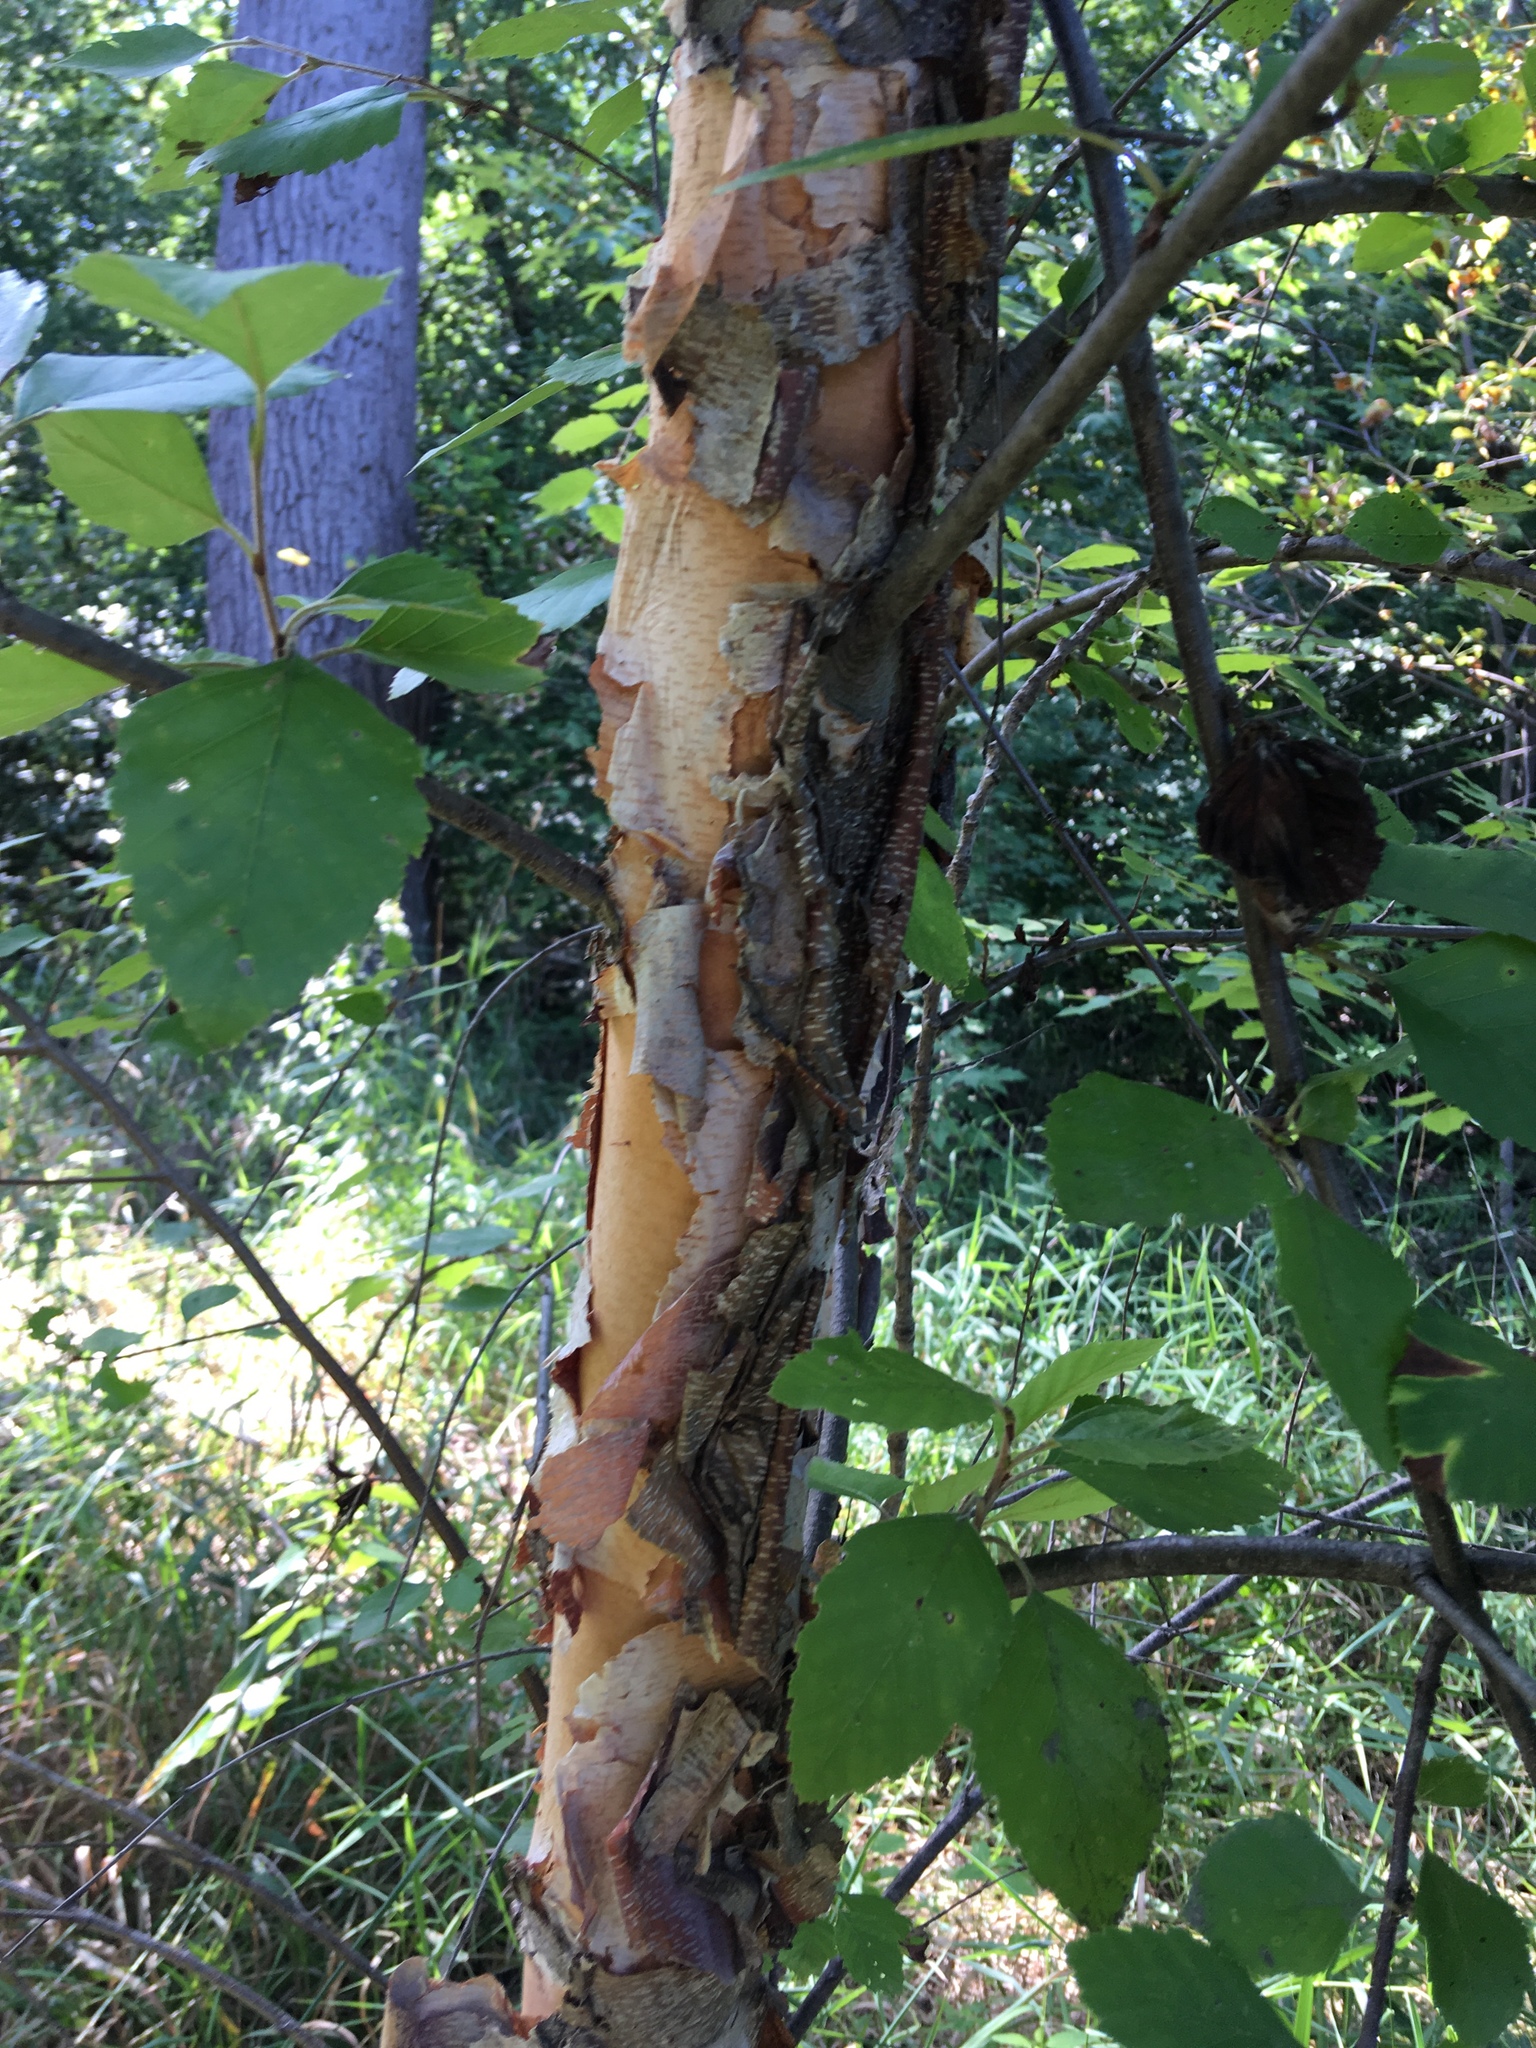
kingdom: Plantae
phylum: Tracheophyta
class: Magnoliopsida
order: Fagales
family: Betulaceae
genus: Betula
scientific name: Betula nigra
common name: Black birch
